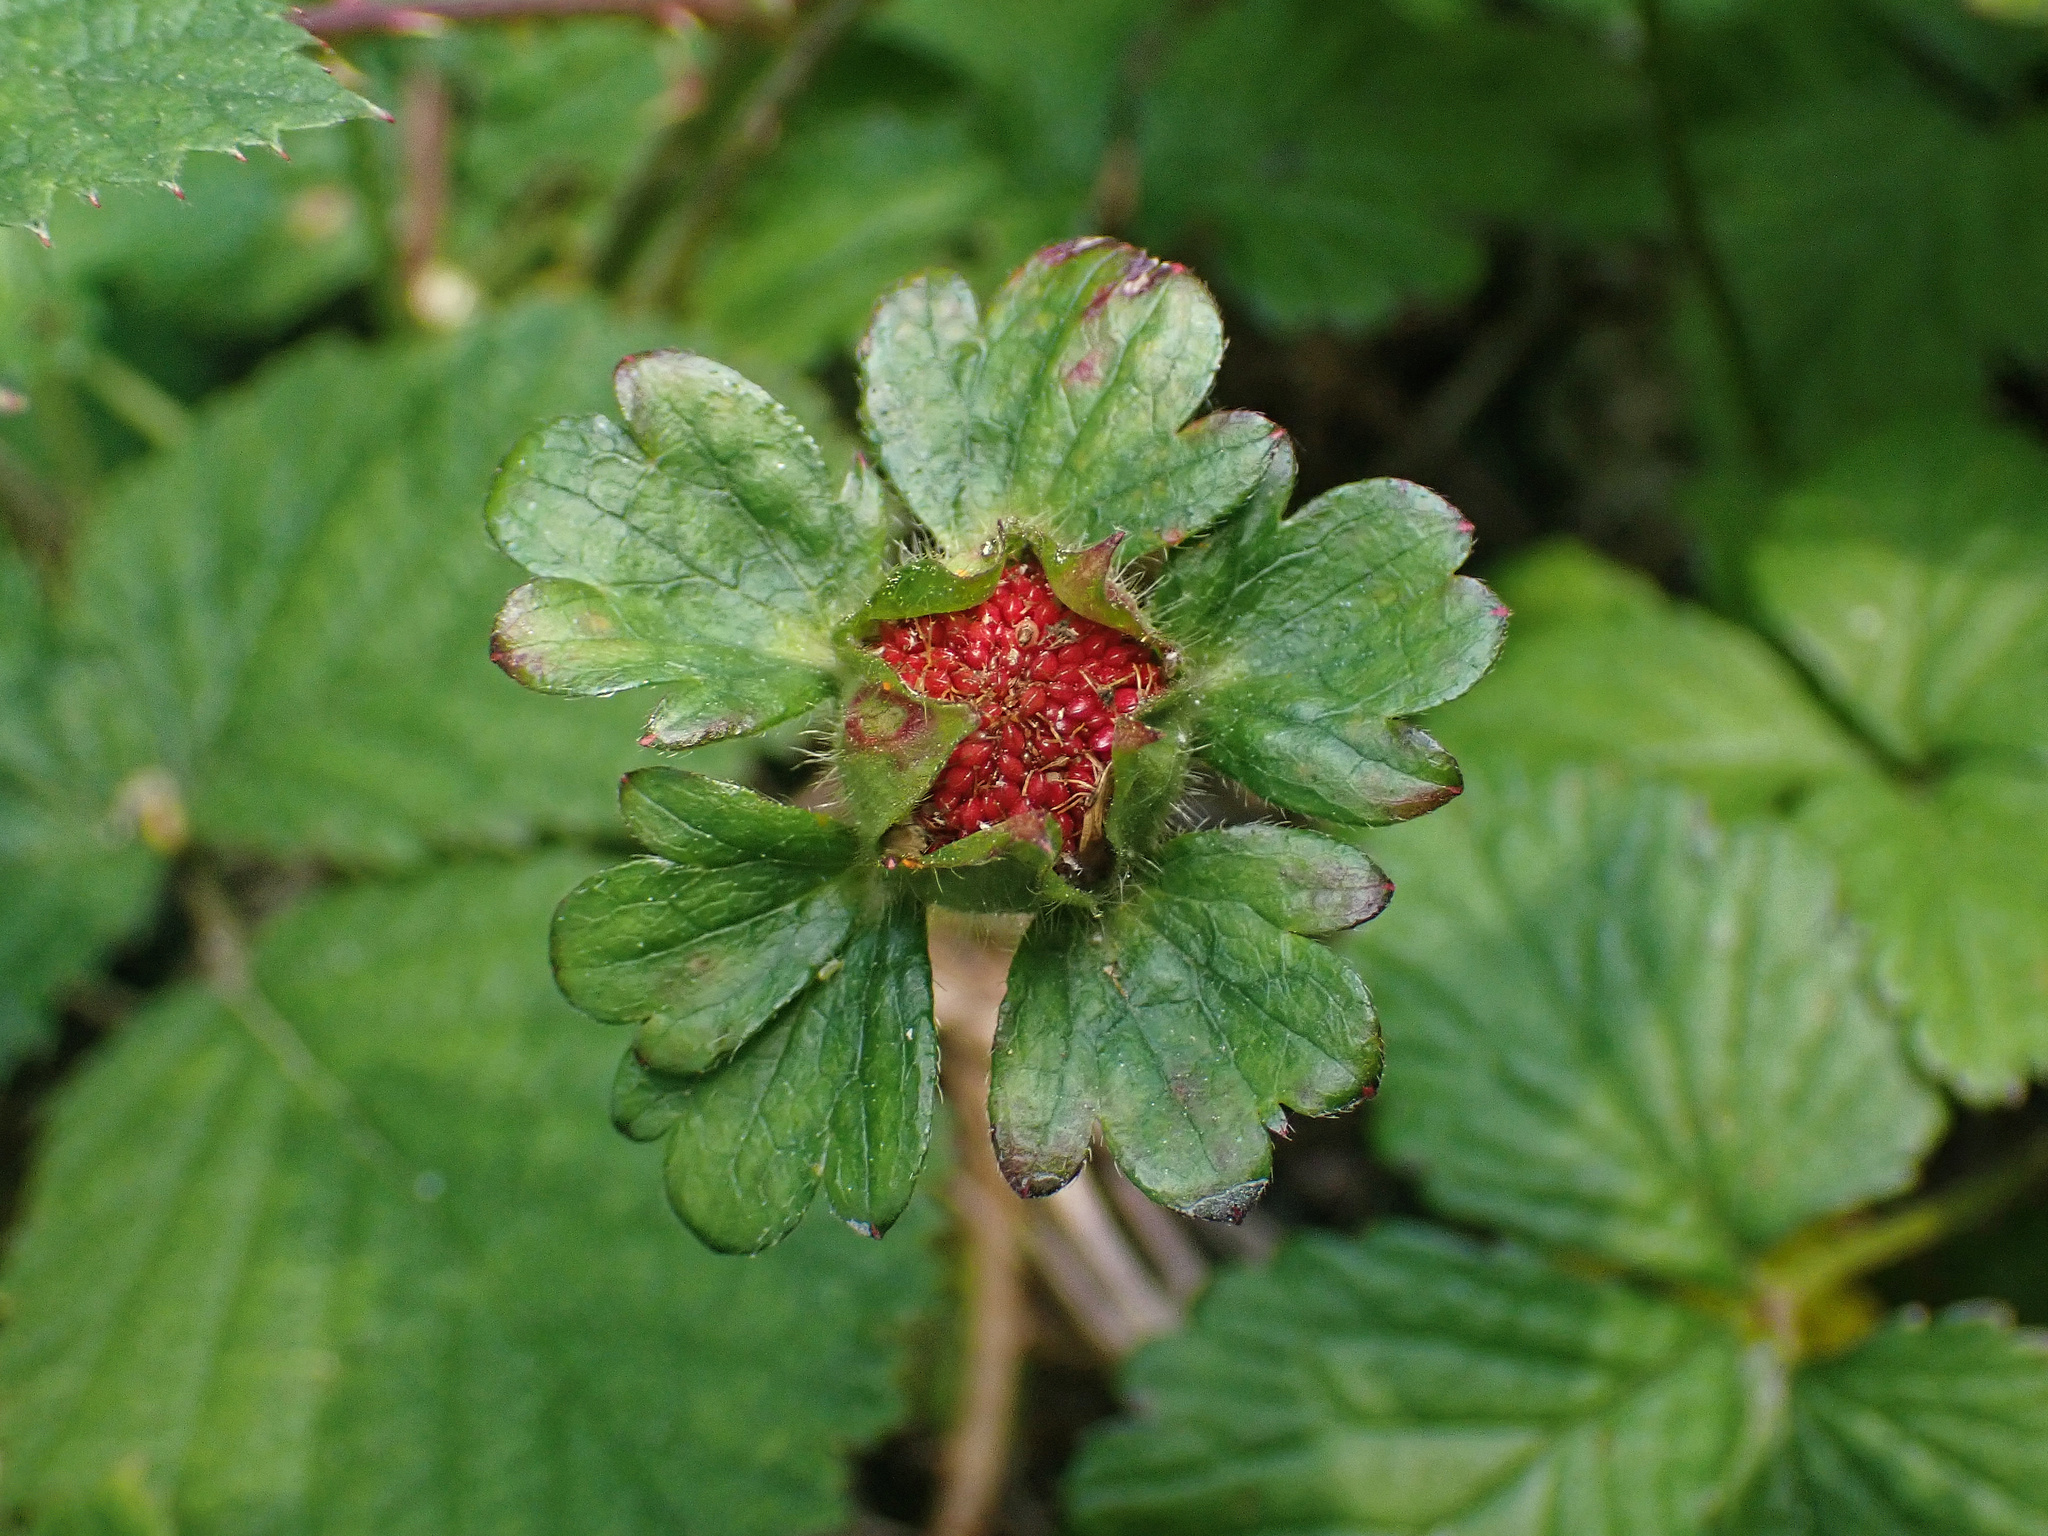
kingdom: Plantae
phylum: Tracheophyta
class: Magnoliopsida
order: Rosales
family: Rosaceae
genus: Potentilla
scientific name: Potentilla indica
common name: Yellow-flowered strawberry
